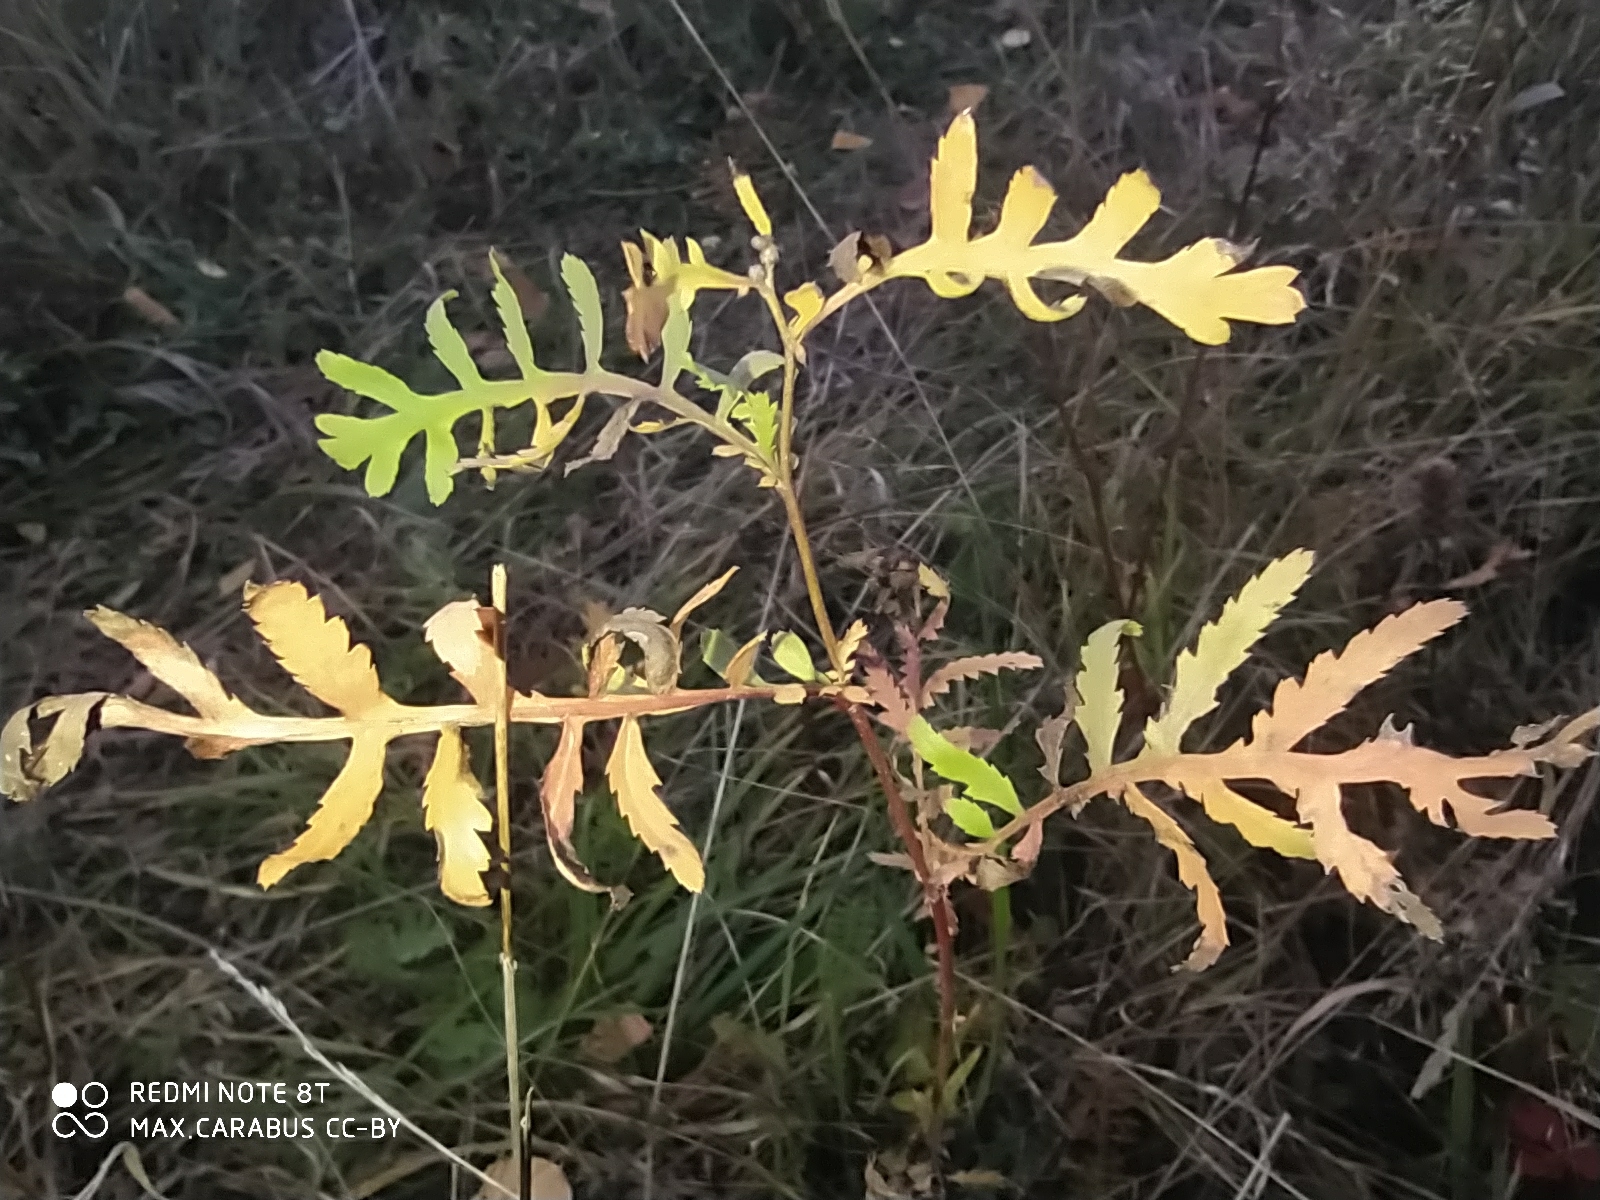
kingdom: Plantae
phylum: Tracheophyta
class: Magnoliopsida
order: Asterales
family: Asteraceae
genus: Tanacetum
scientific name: Tanacetum vulgare
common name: Common tansy
